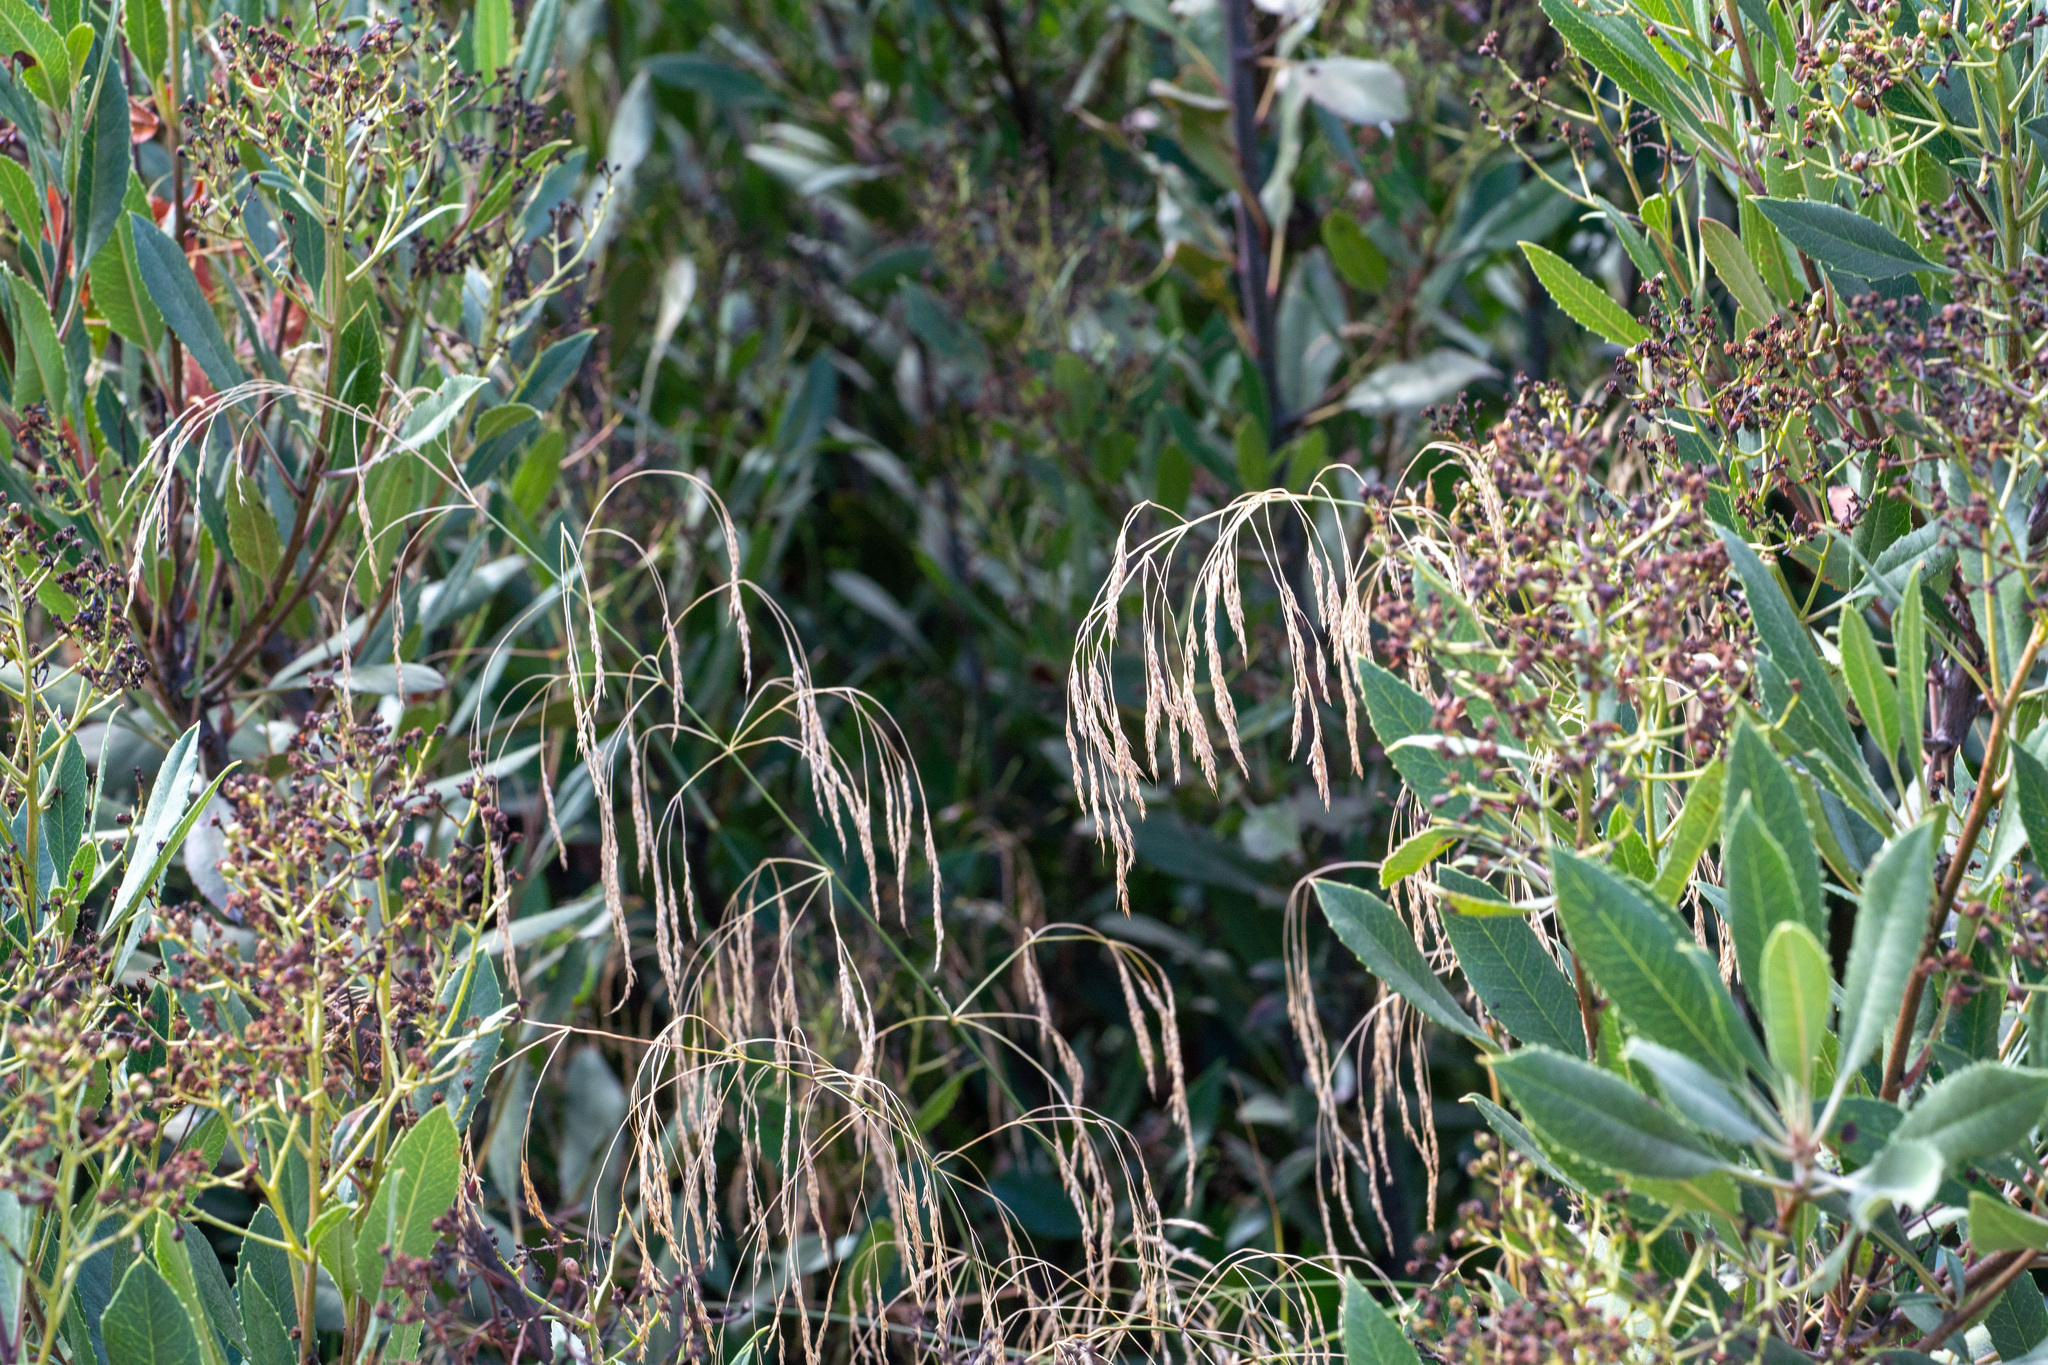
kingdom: Plantae
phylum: Tracheophyta
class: Liliopsida
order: Poales
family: Poaceae
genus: Oloptum
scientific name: Oloptum miliaceum
